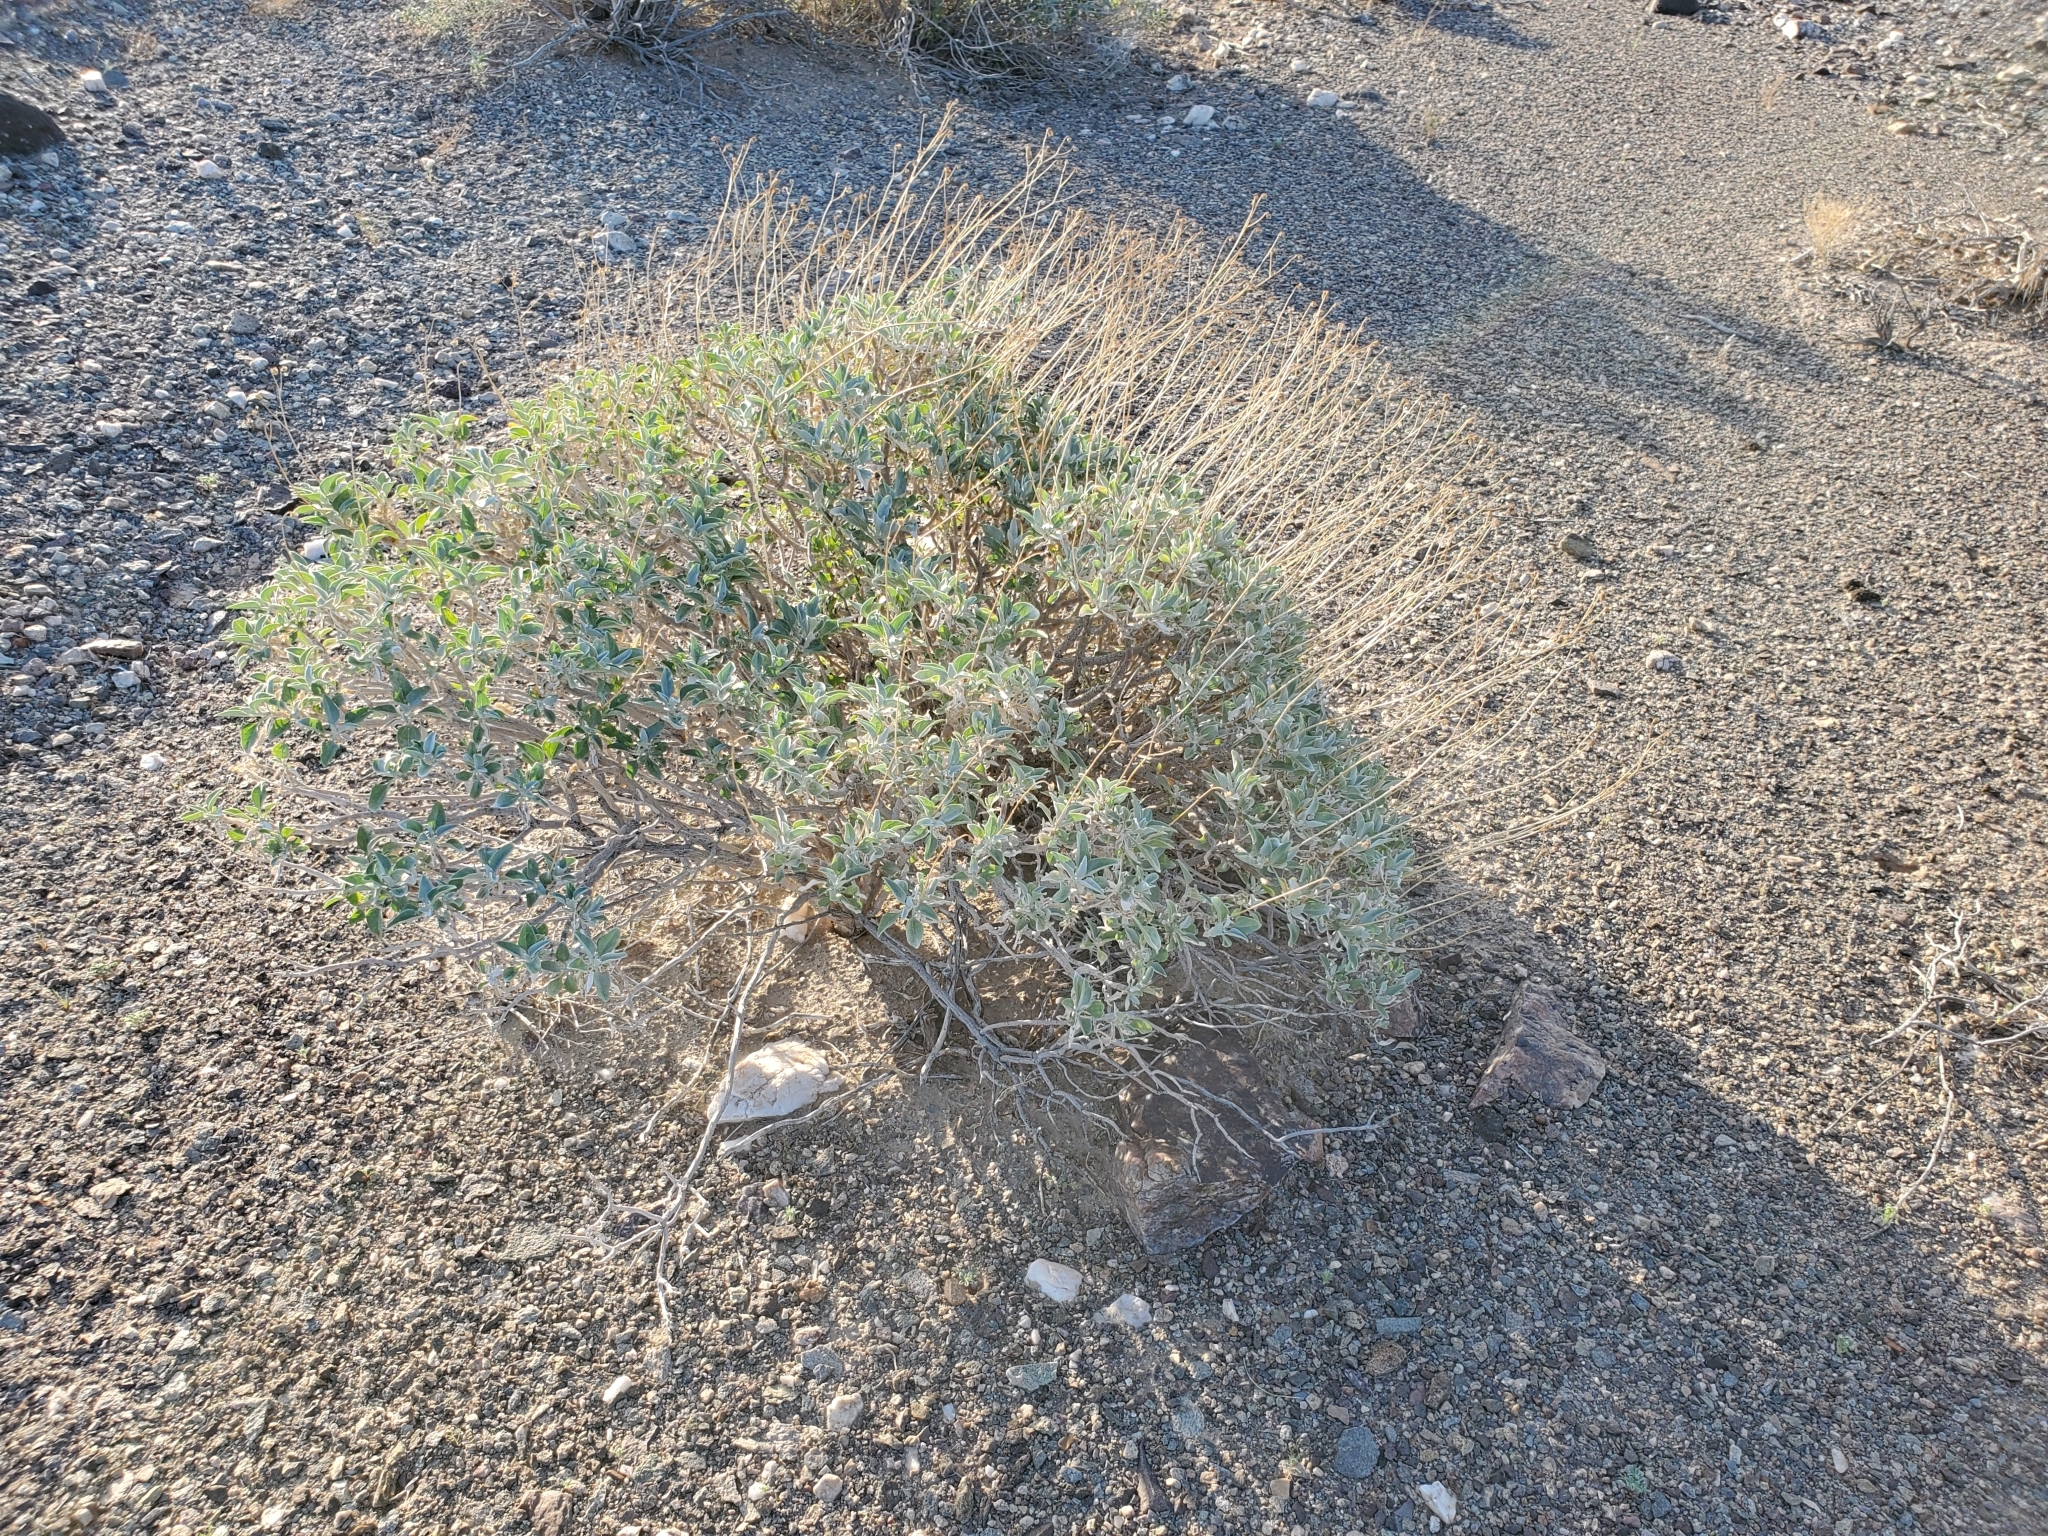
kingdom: Plantae
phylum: Tracheophyta
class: Magnoliopsida
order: Asterales
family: Asteraceae
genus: Encelia
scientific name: Encelia farinosa
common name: Brittlebush
